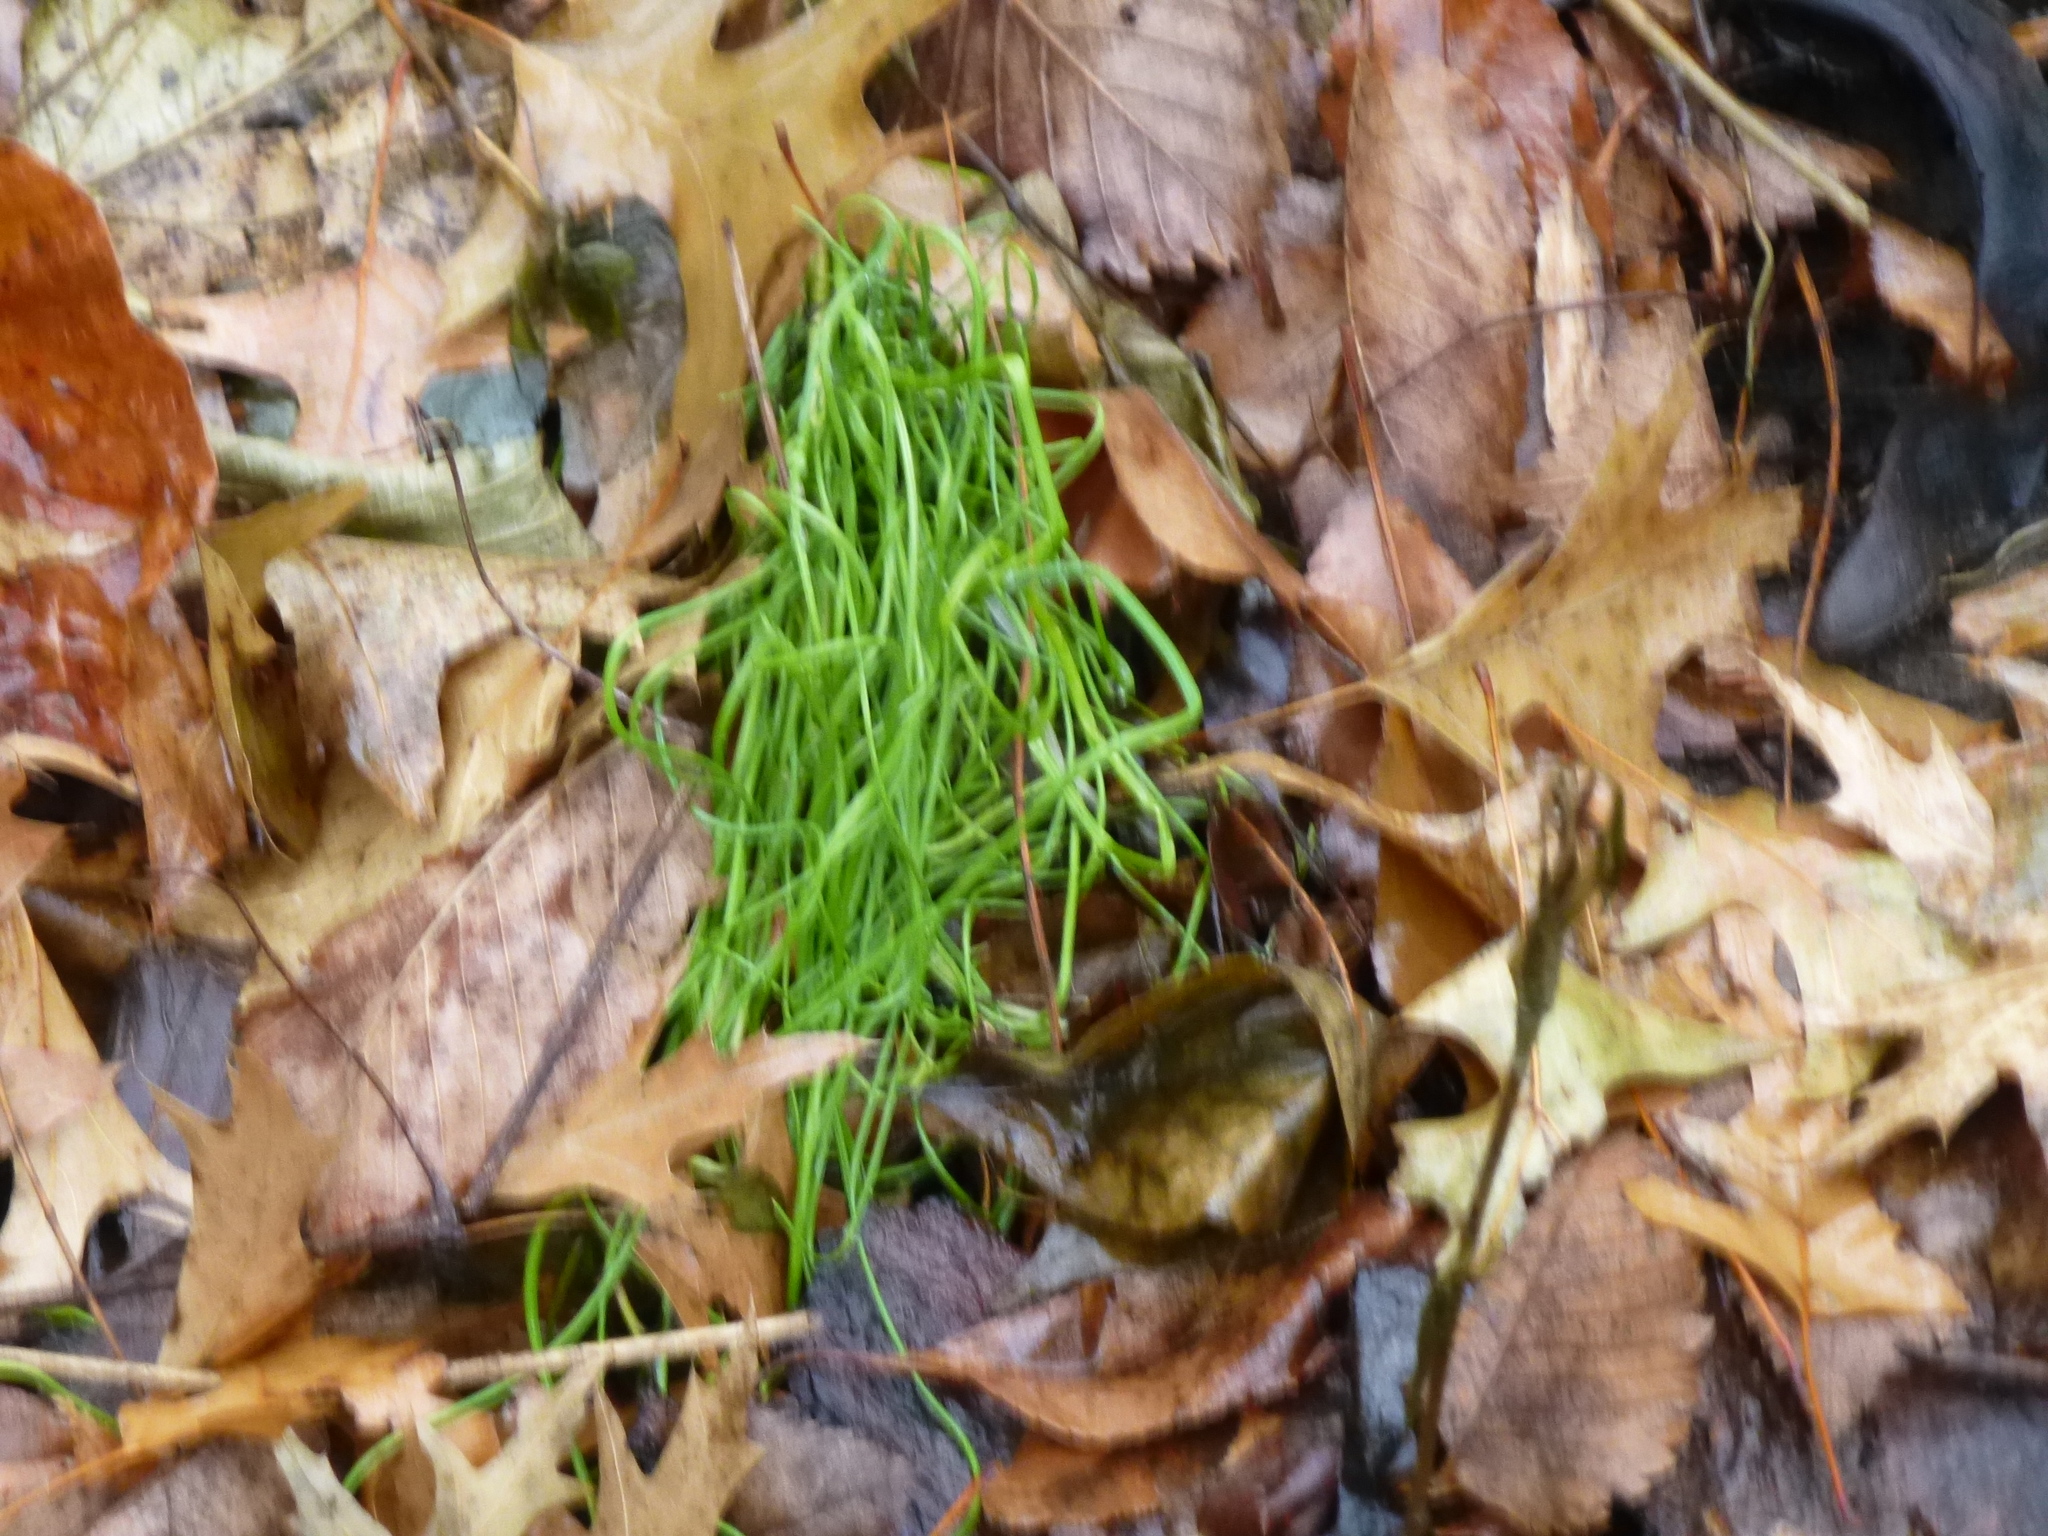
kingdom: Plantae
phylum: Tracheophyta
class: Liliopsida
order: Asparagales
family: Amaryllidaceae
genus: Allium
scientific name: Allium vineale
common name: Crow garlic
